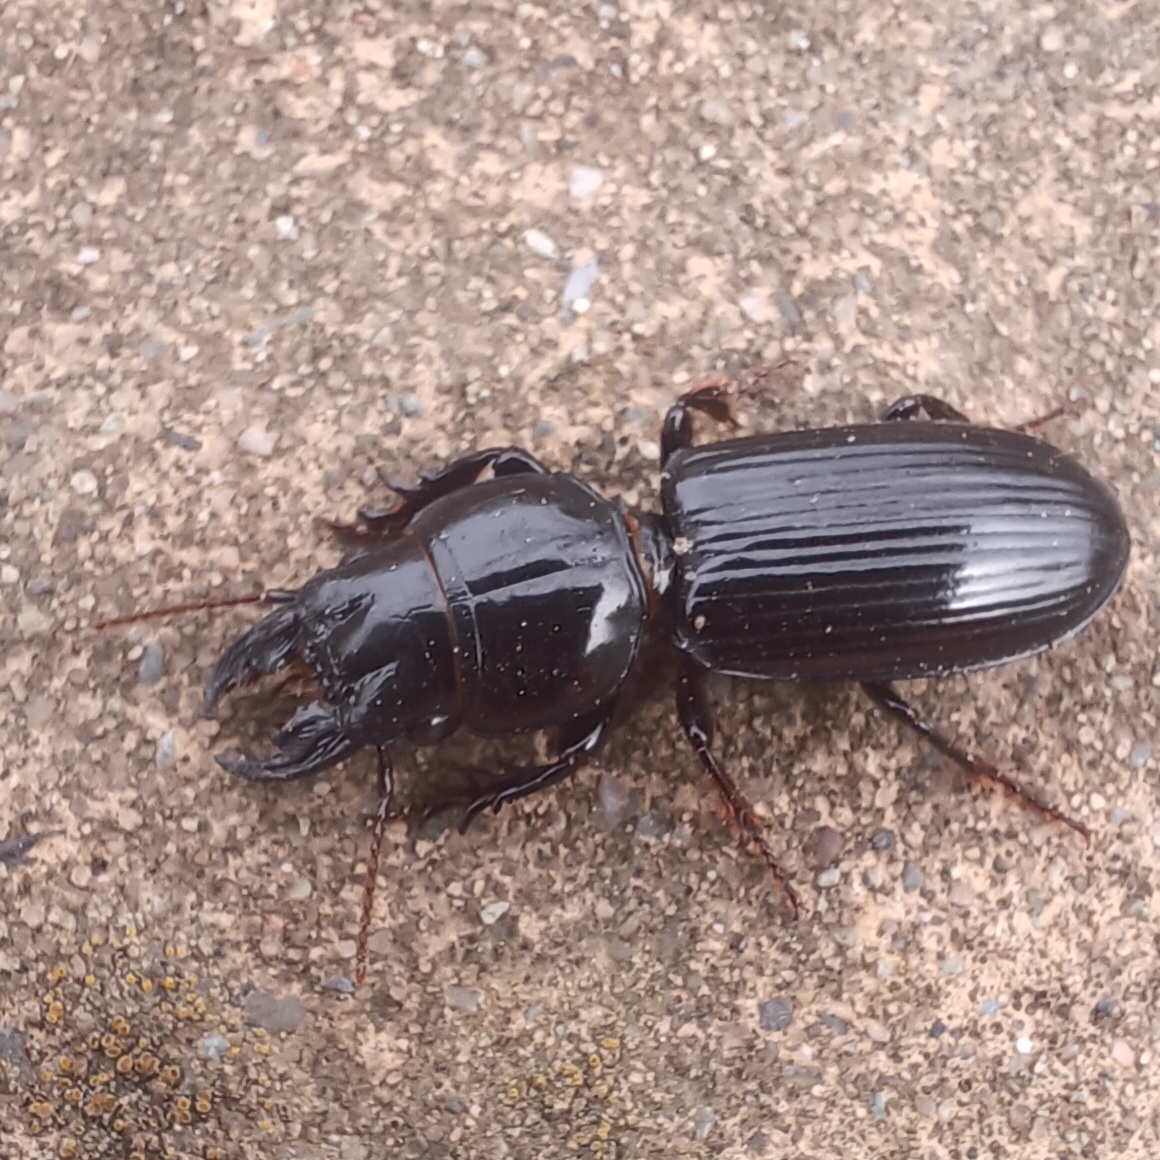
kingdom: Animalia
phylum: Arthropoda
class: Insecta
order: Coleoptera
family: Carabidae
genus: Scarites
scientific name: Scarites subterraneus
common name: Big-headed ground beetle
